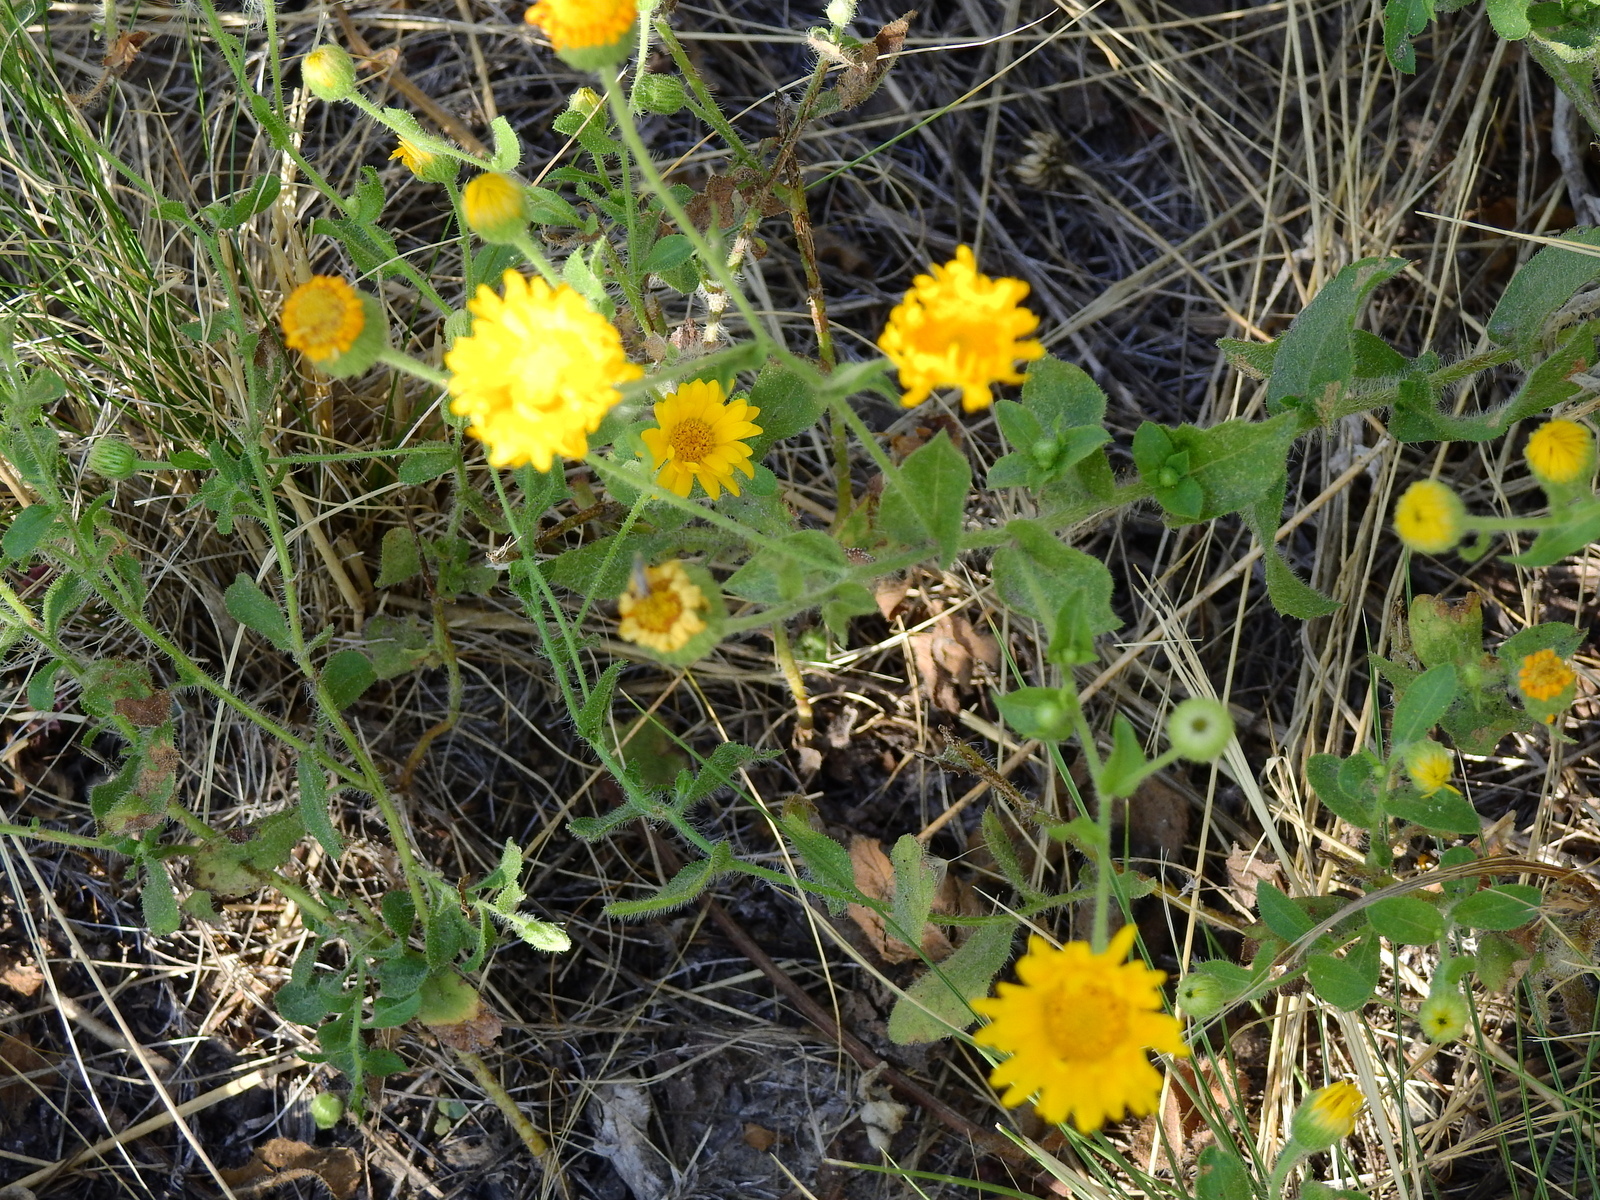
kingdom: Plantae
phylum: Tracheophyta
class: Magnoliopsida
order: Asterales
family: Asteraceae
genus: Heterotheca
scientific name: Heterotheca subaxillaris
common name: Camphorweed
